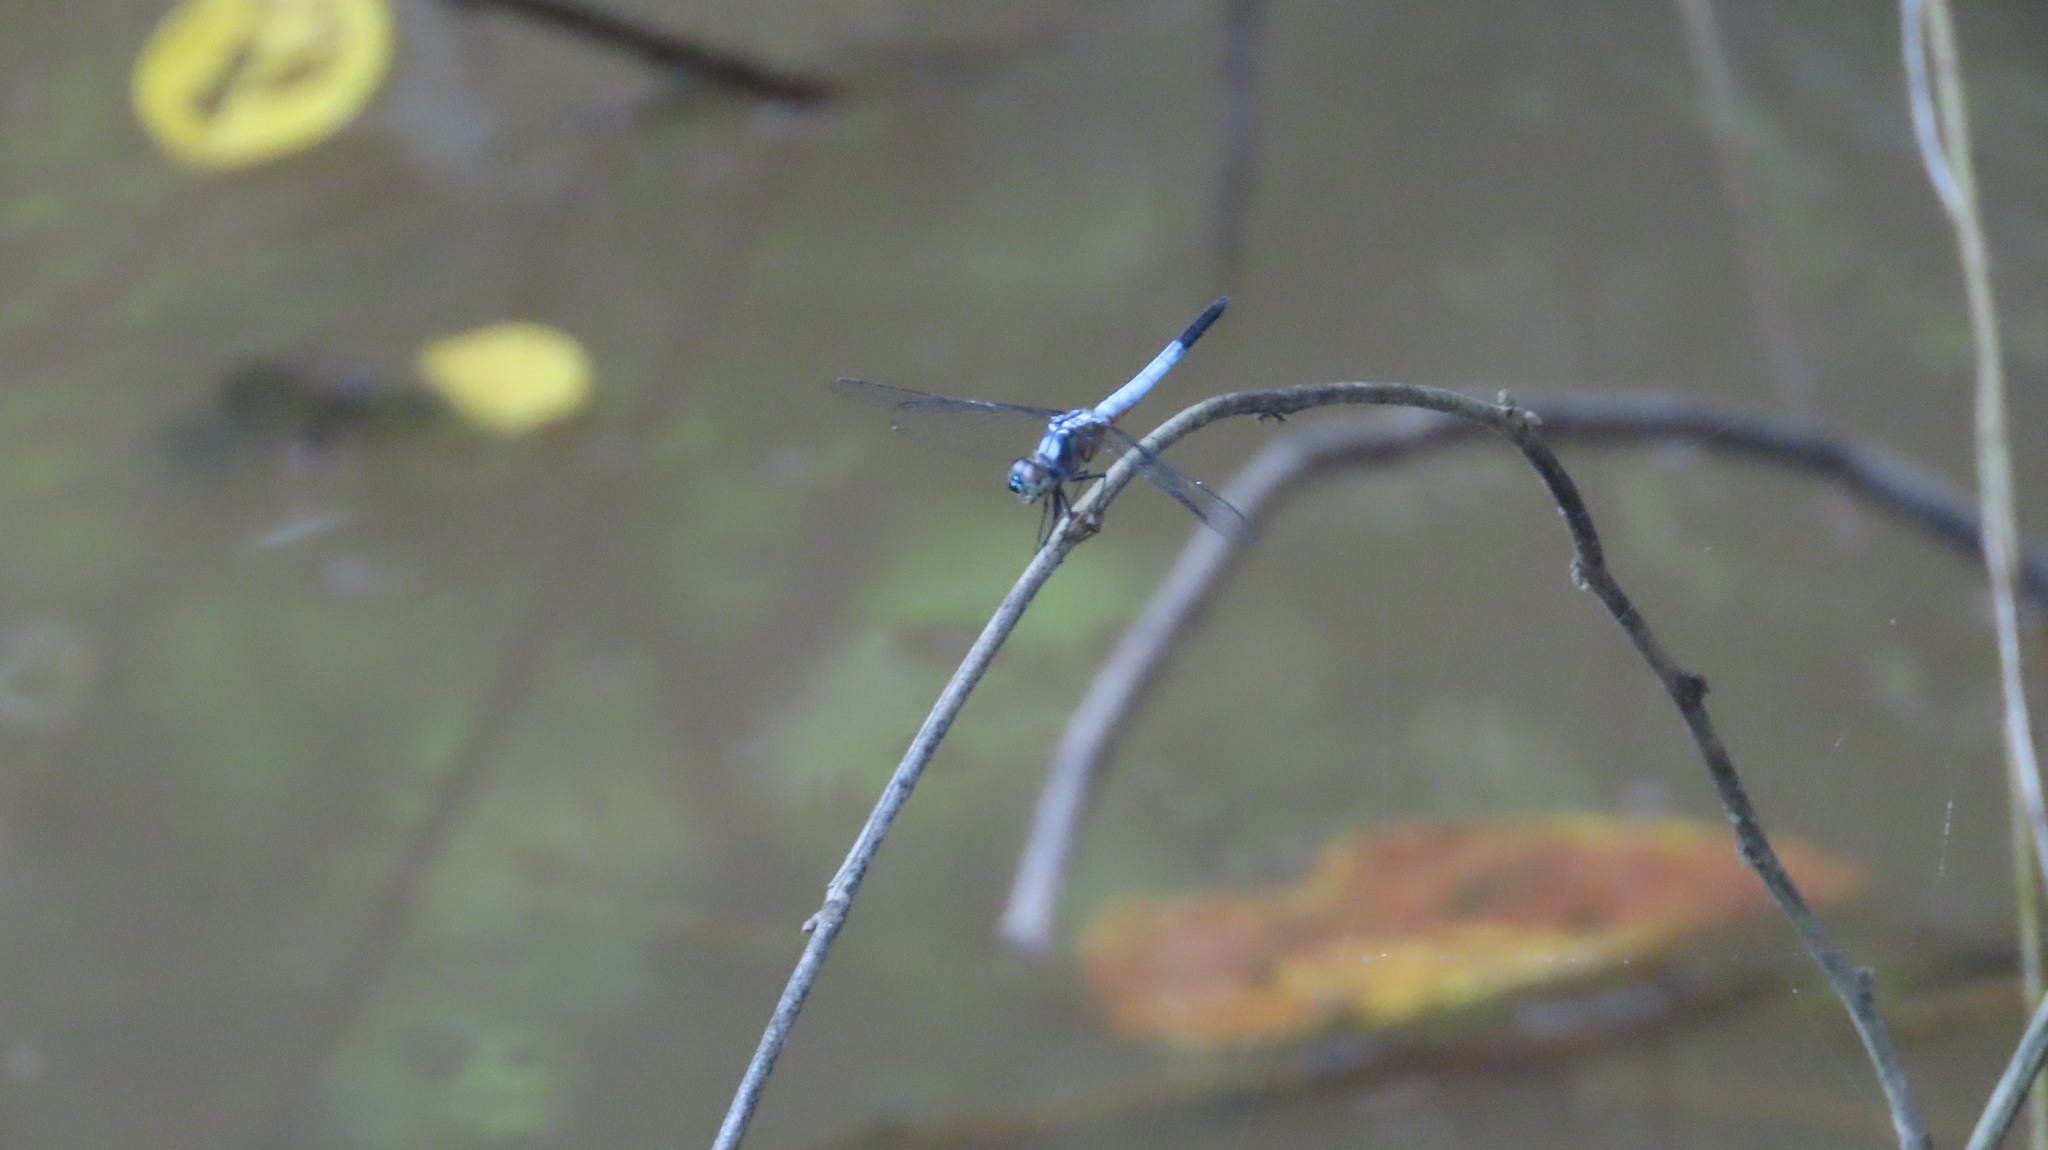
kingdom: Animalia
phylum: Arthropoda
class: Insecta
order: Odonata
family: Libellulidae
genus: Brachydiplax
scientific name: Brachydiplax chalybea
